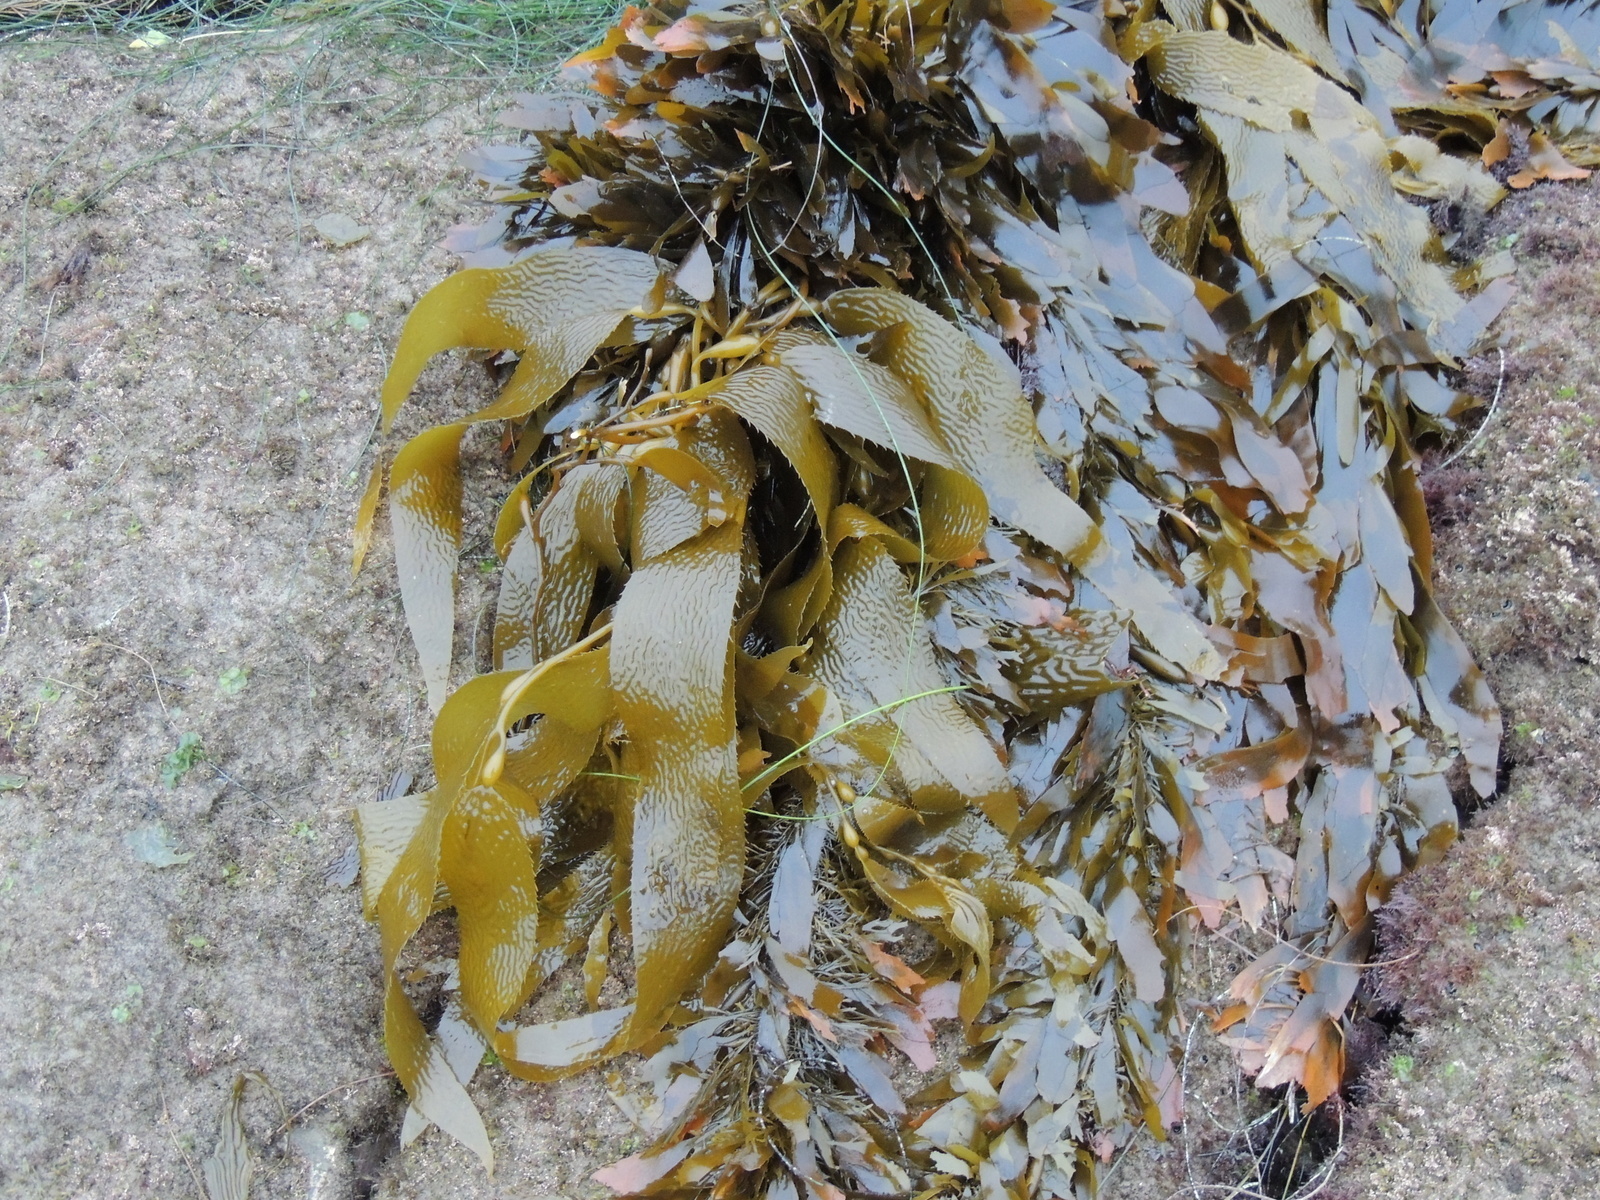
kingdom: Chromista
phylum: Ochrophyta
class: Phaeophyceae
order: Laminariales
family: Laminariaceae
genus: Macrocystis
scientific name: Macrocystis pyrifera
